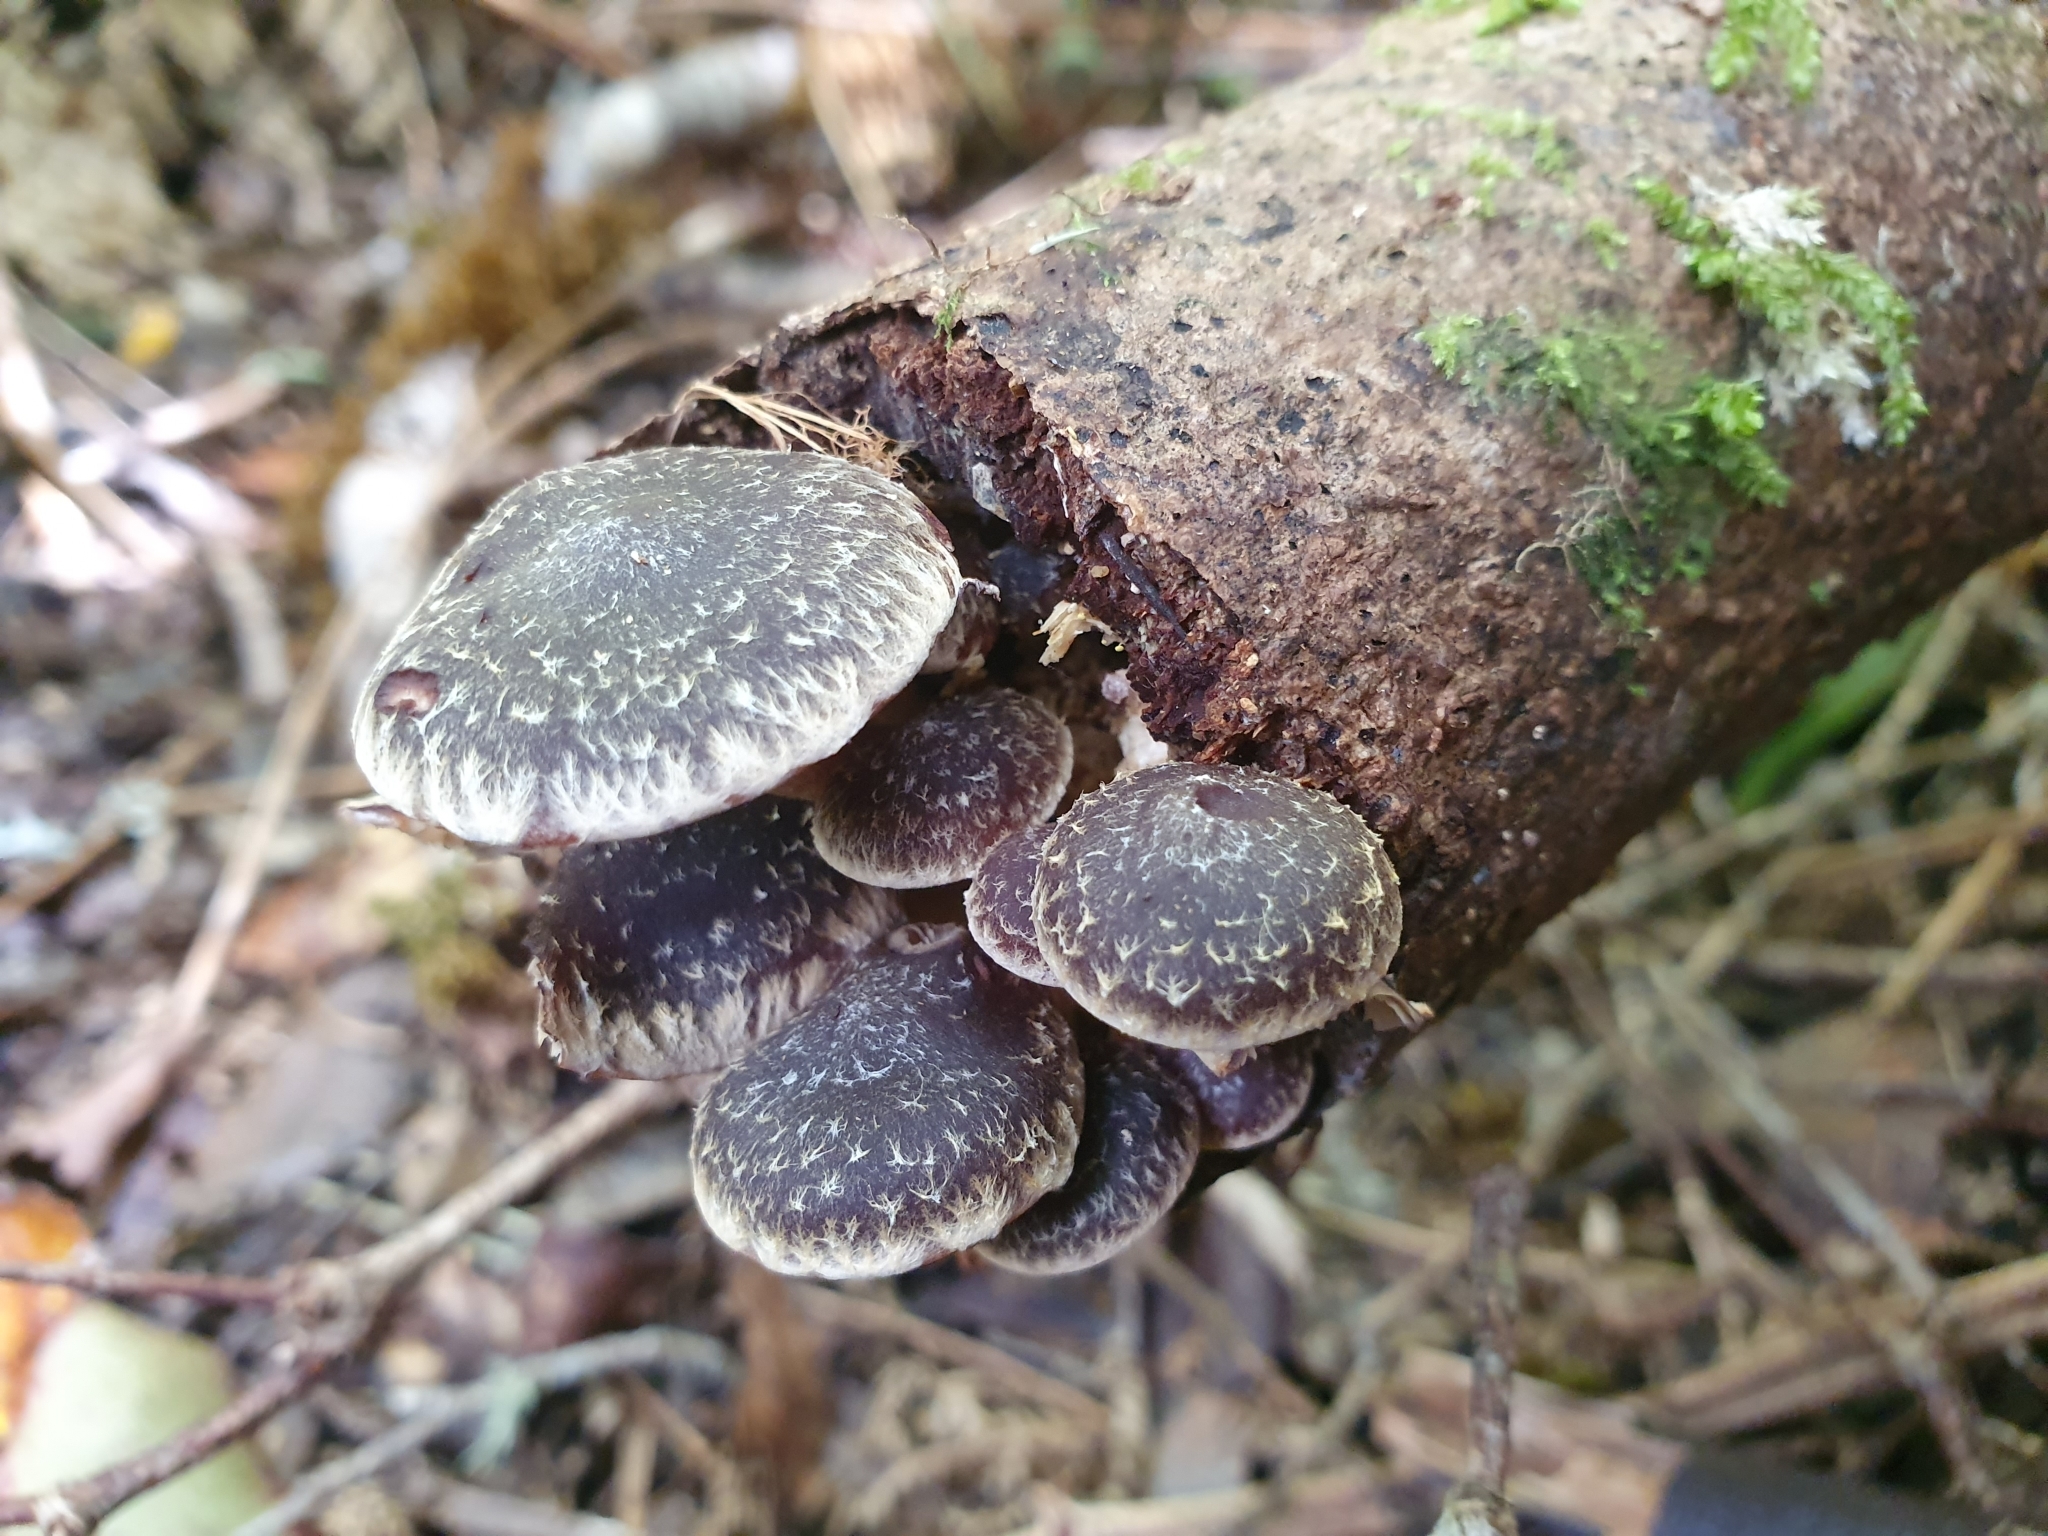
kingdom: Fungi
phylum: Basidiomycota
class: Agaricomycetes
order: Agaricales
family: Strophariaceae
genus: Hypholoma
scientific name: Hypholoma brunneum
